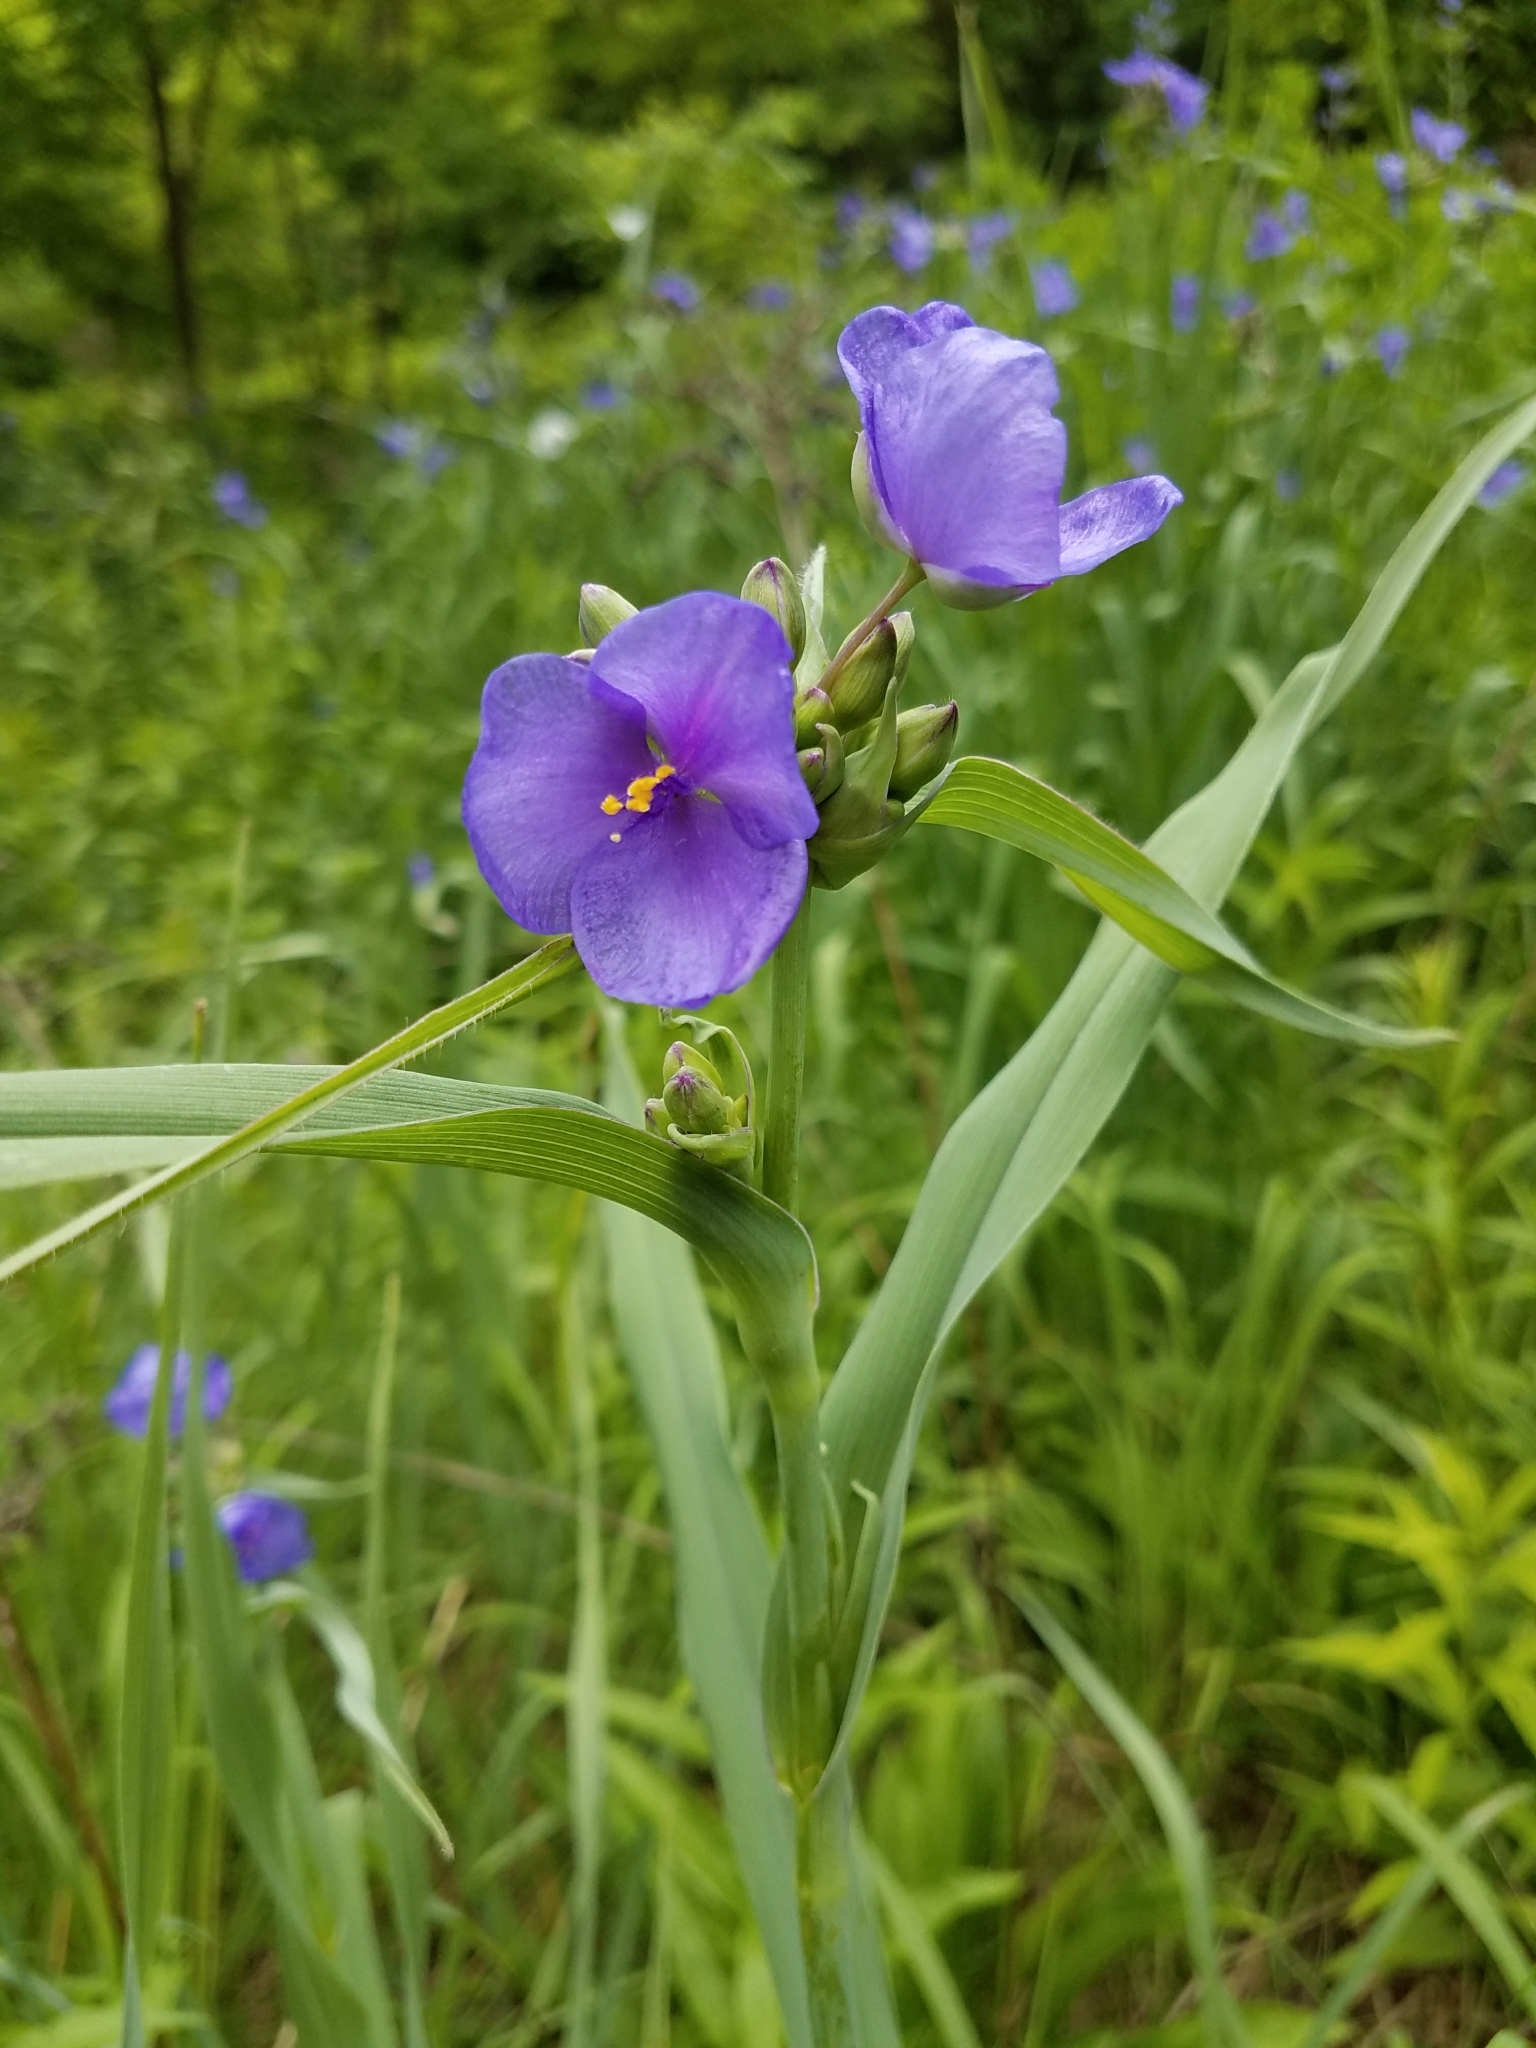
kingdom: Plantae
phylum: Tracheophyta
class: Liliopsida
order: Commelinales
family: Commelinaceae
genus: Tradescantia
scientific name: Tradescantia virginiana
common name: Spiderwort
